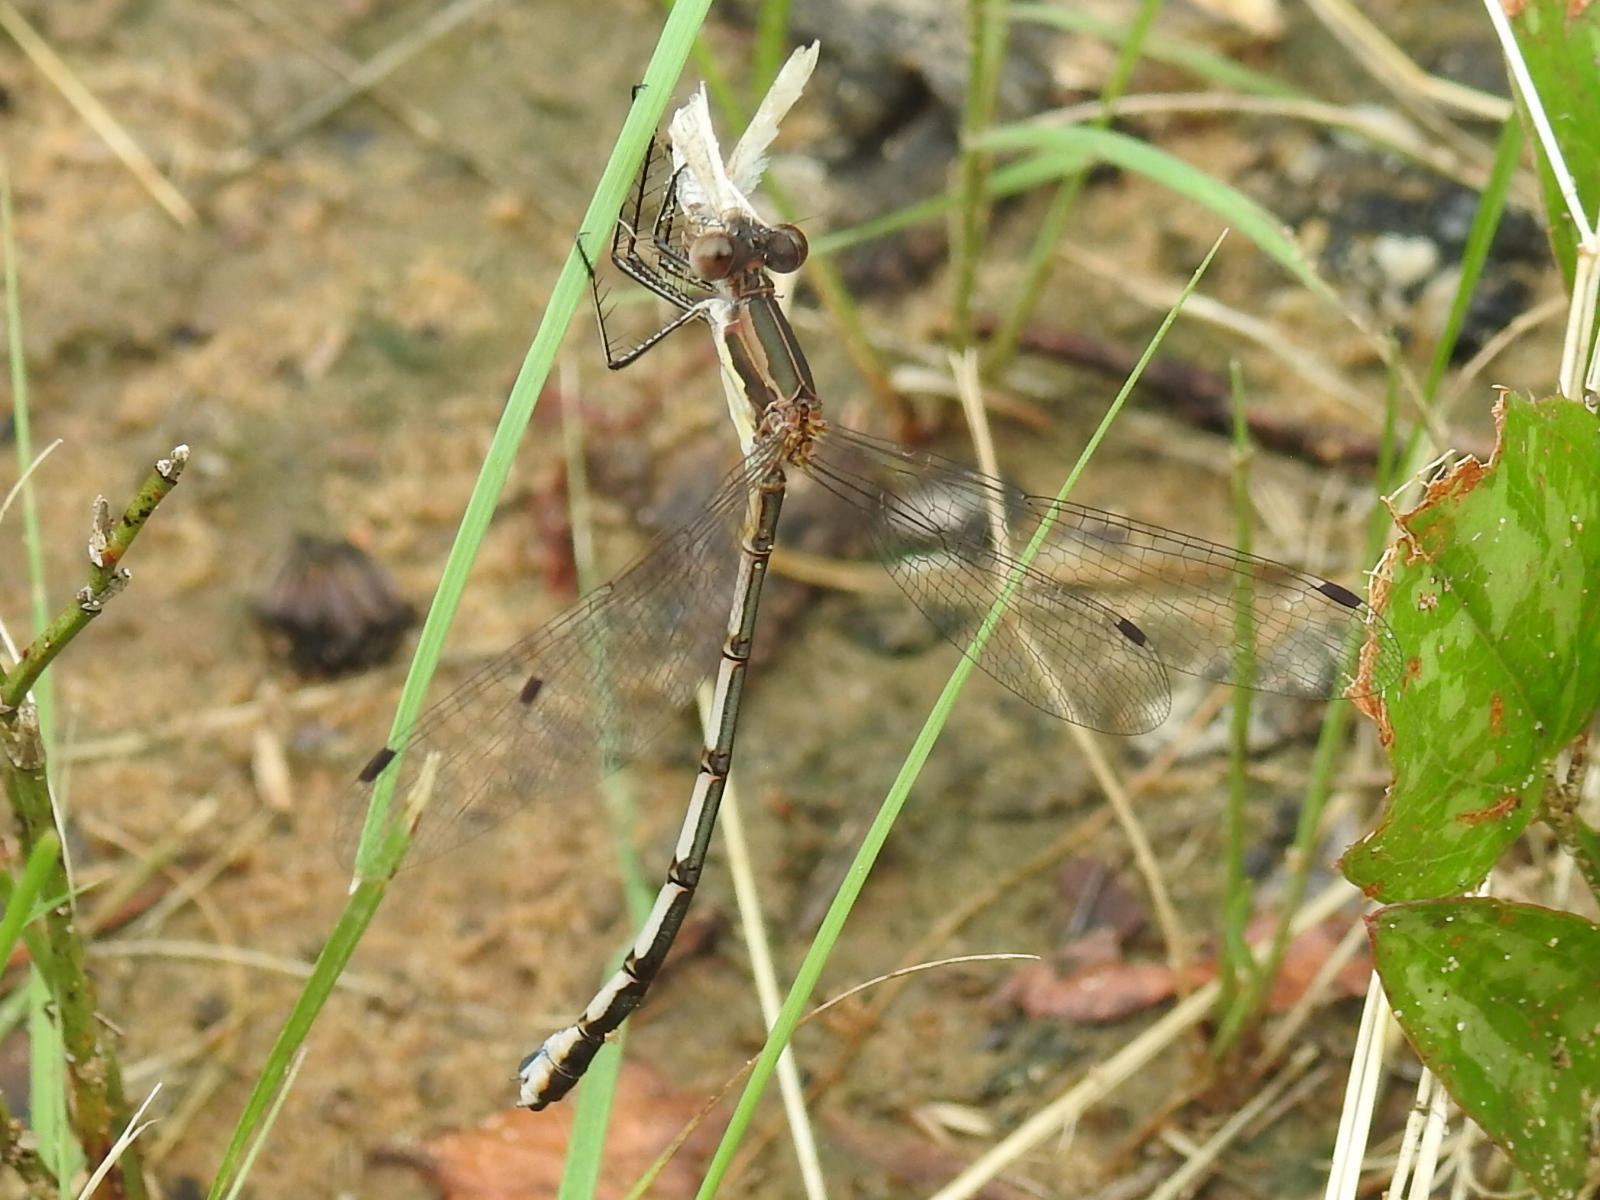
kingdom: Animalia
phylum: Arthropoda
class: Insecta
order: Odonata
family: Lestidae
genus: Lestes
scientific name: Lestes australis
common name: Southern spreadwing
